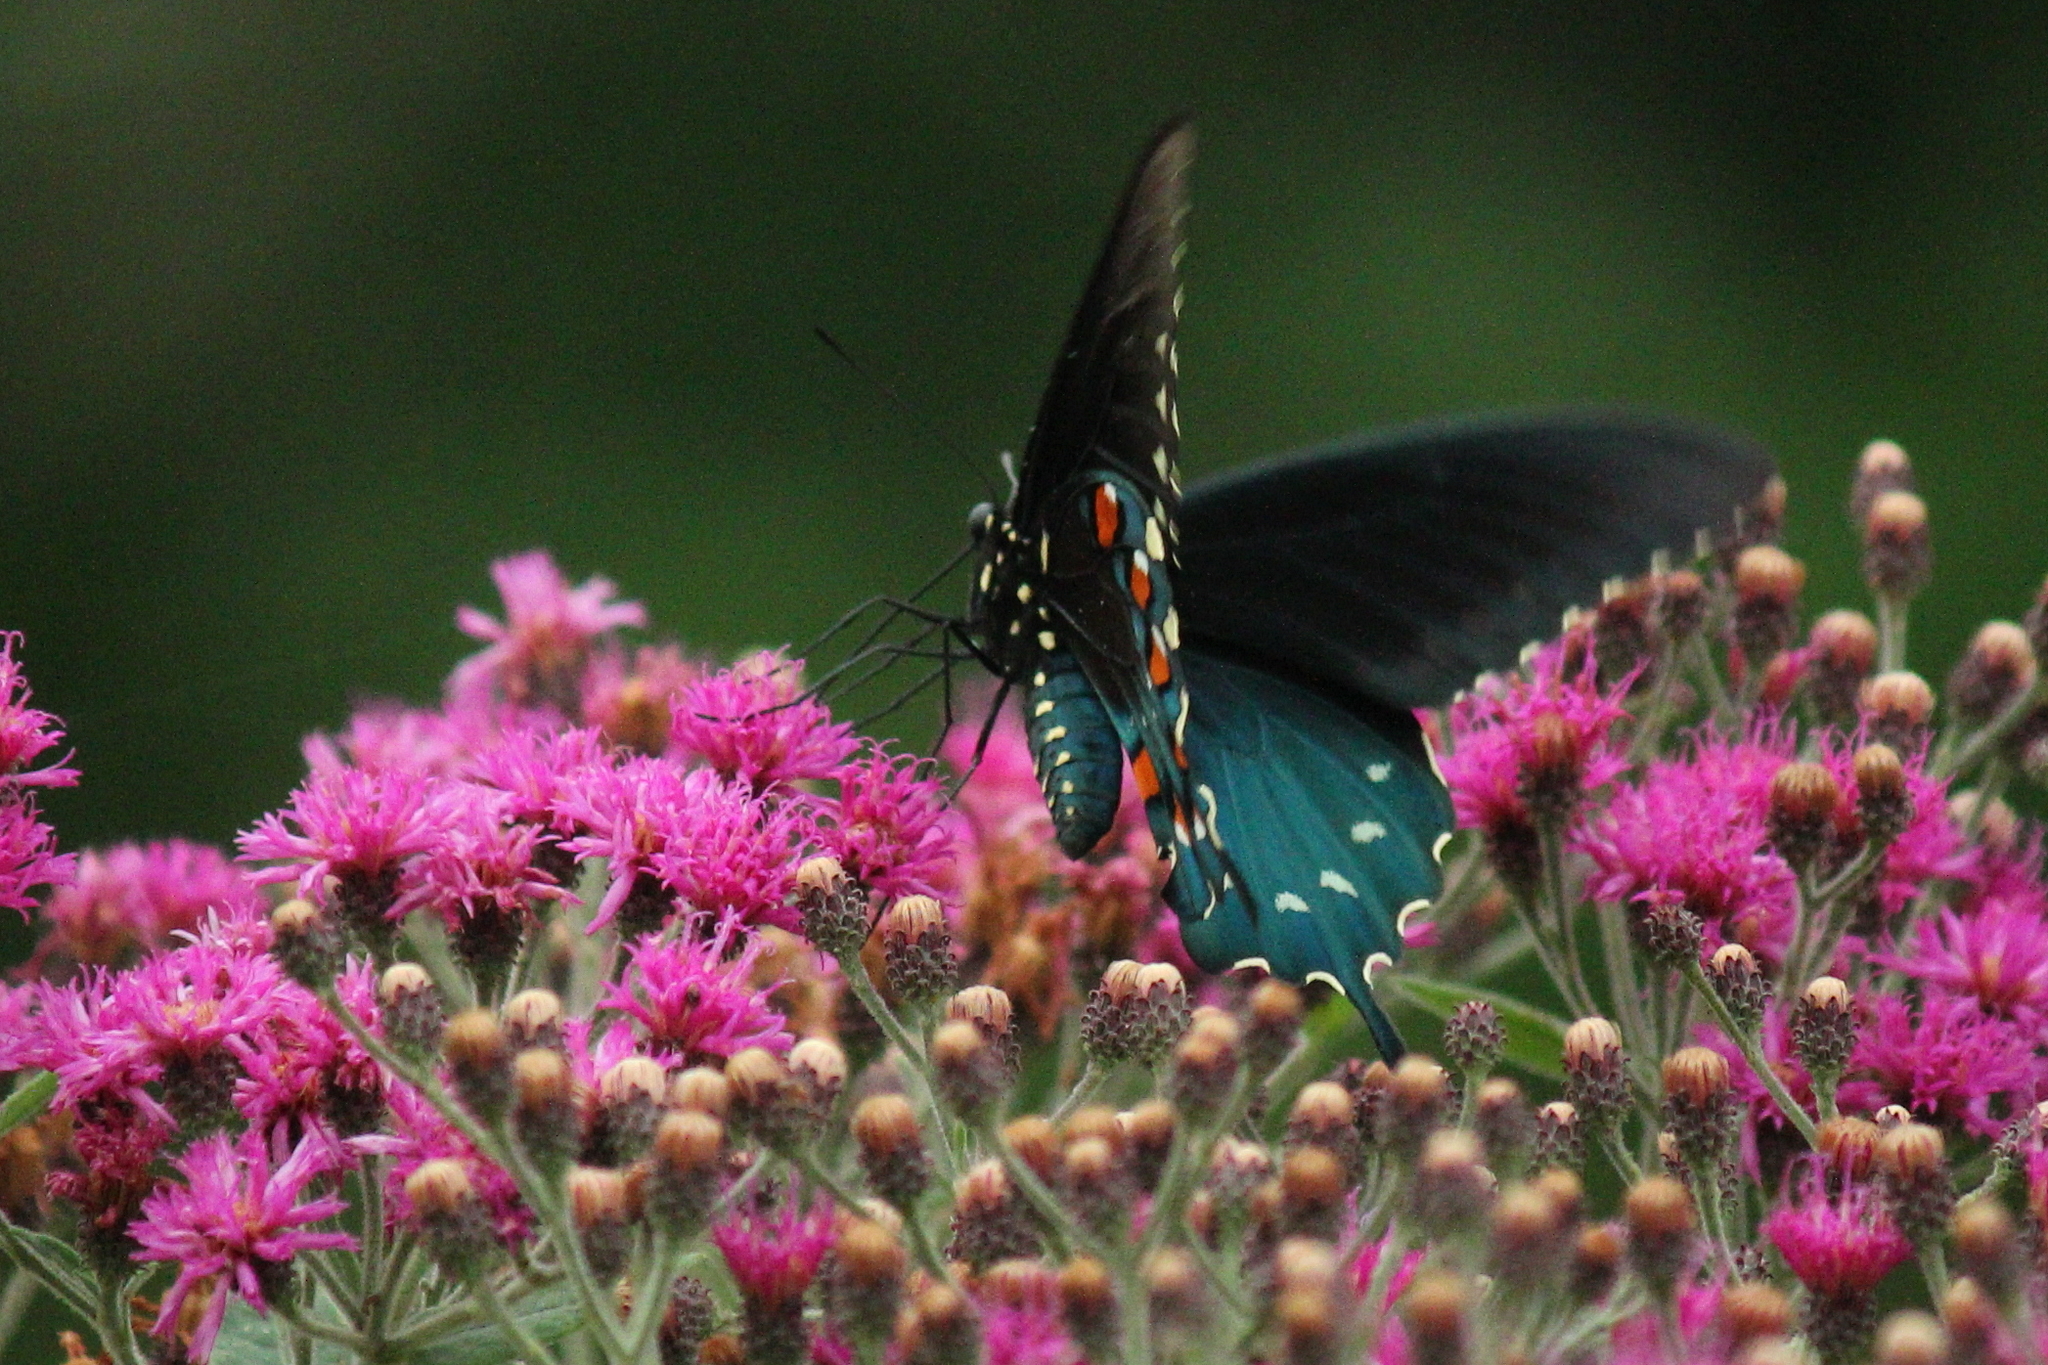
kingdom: Animalia
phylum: Arthropoda
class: Insecta
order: Lepidoptera
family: Papilionidae
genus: Battus
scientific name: Battus philenor
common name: Pipevine swallowtail
